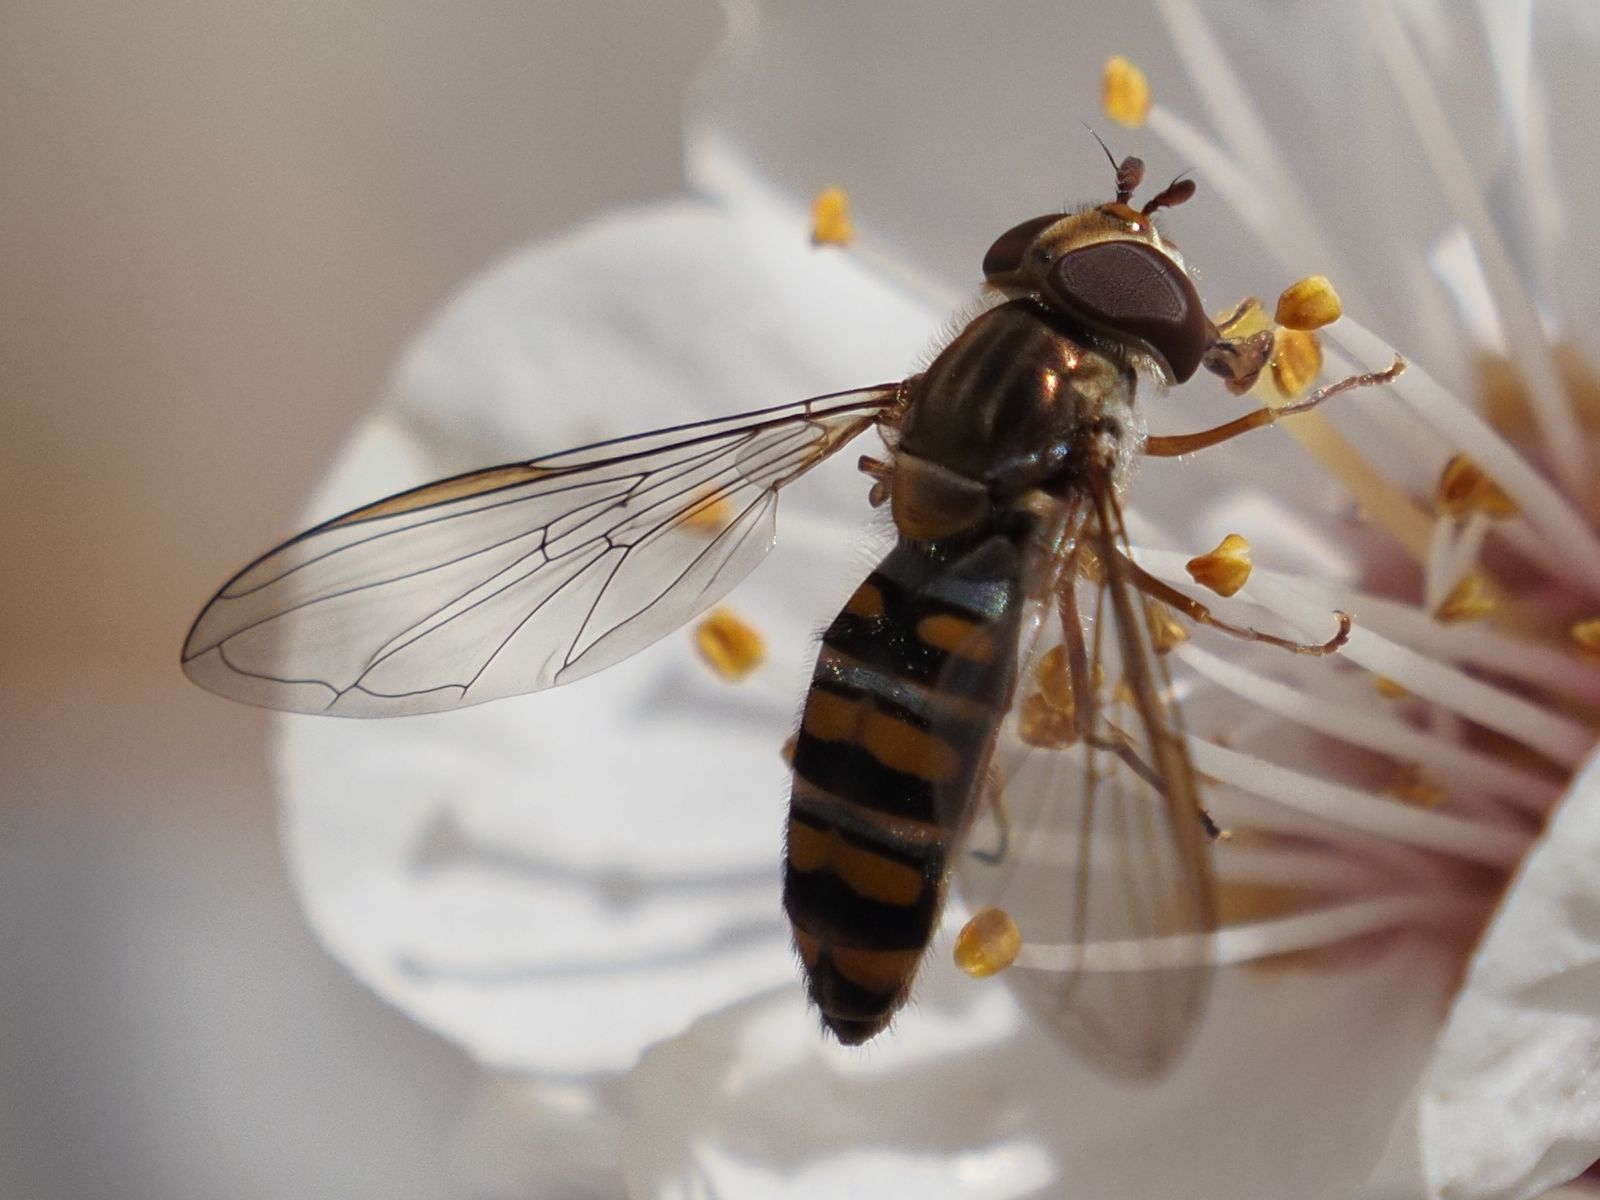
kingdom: Animalia
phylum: Arthropoda
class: Insecta
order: Diptera
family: Syrphidae
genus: Episyrphus
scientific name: Episyrphus balteatus
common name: Marmalade hoverfly
